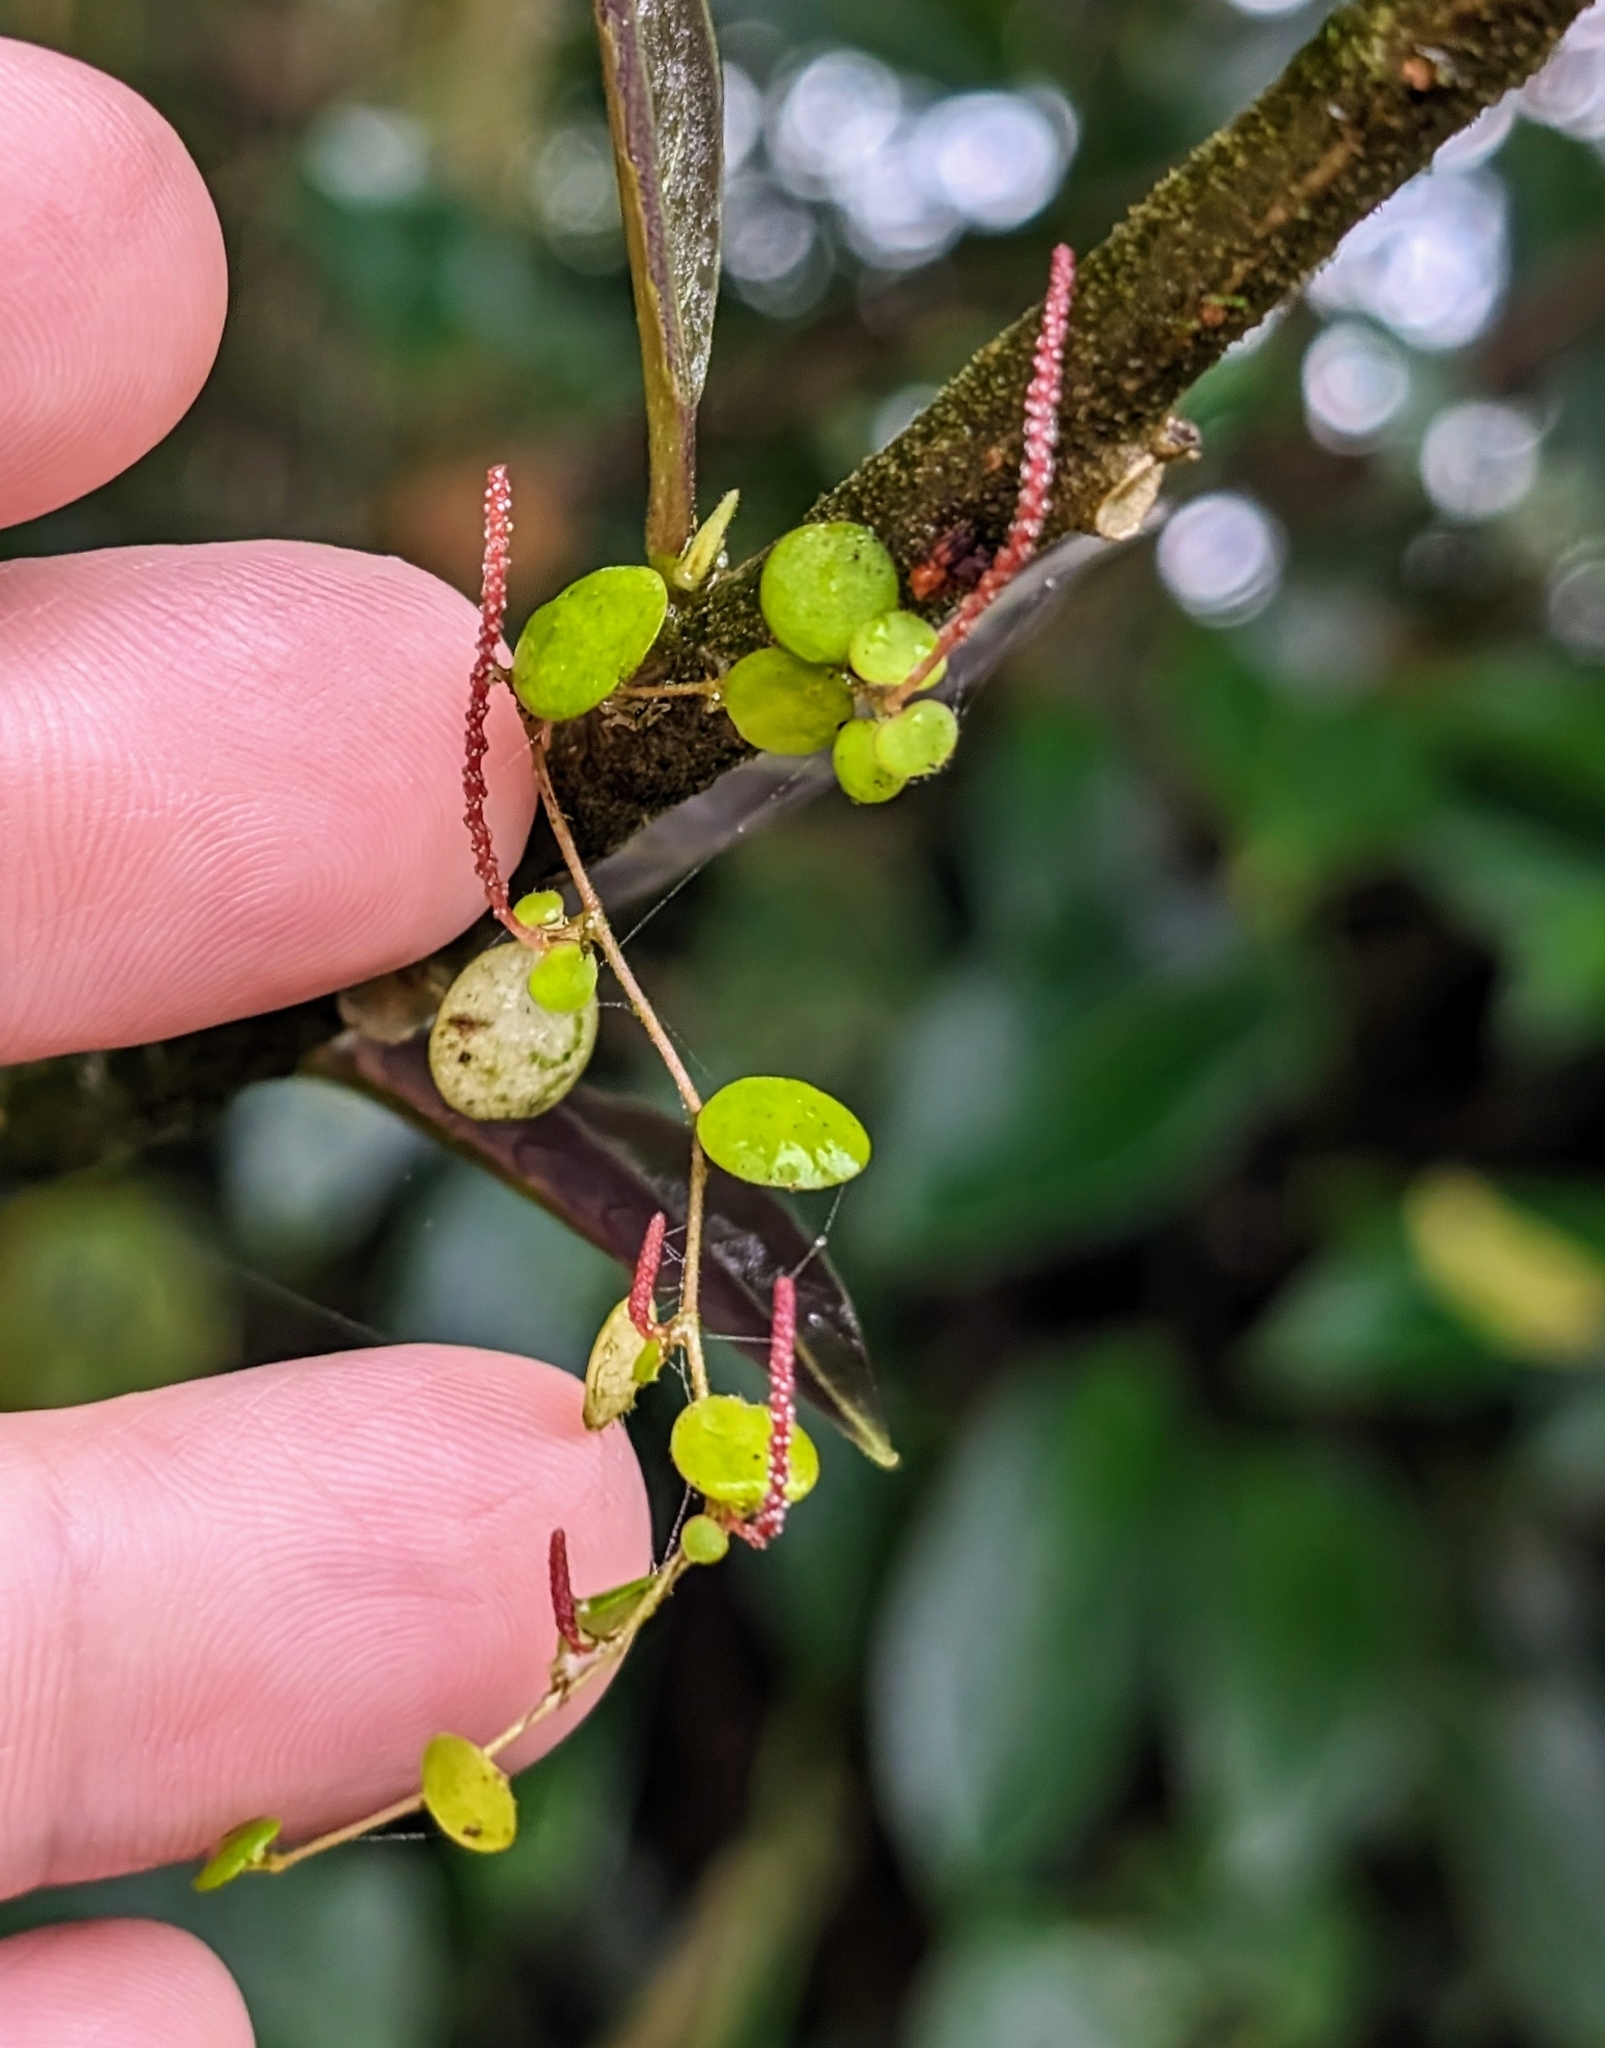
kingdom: Plantae
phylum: Tracheophyta
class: Magnoliopsida
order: Piperales
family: Piperaceae
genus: Peperomia
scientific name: Peperomia rotundifolia
